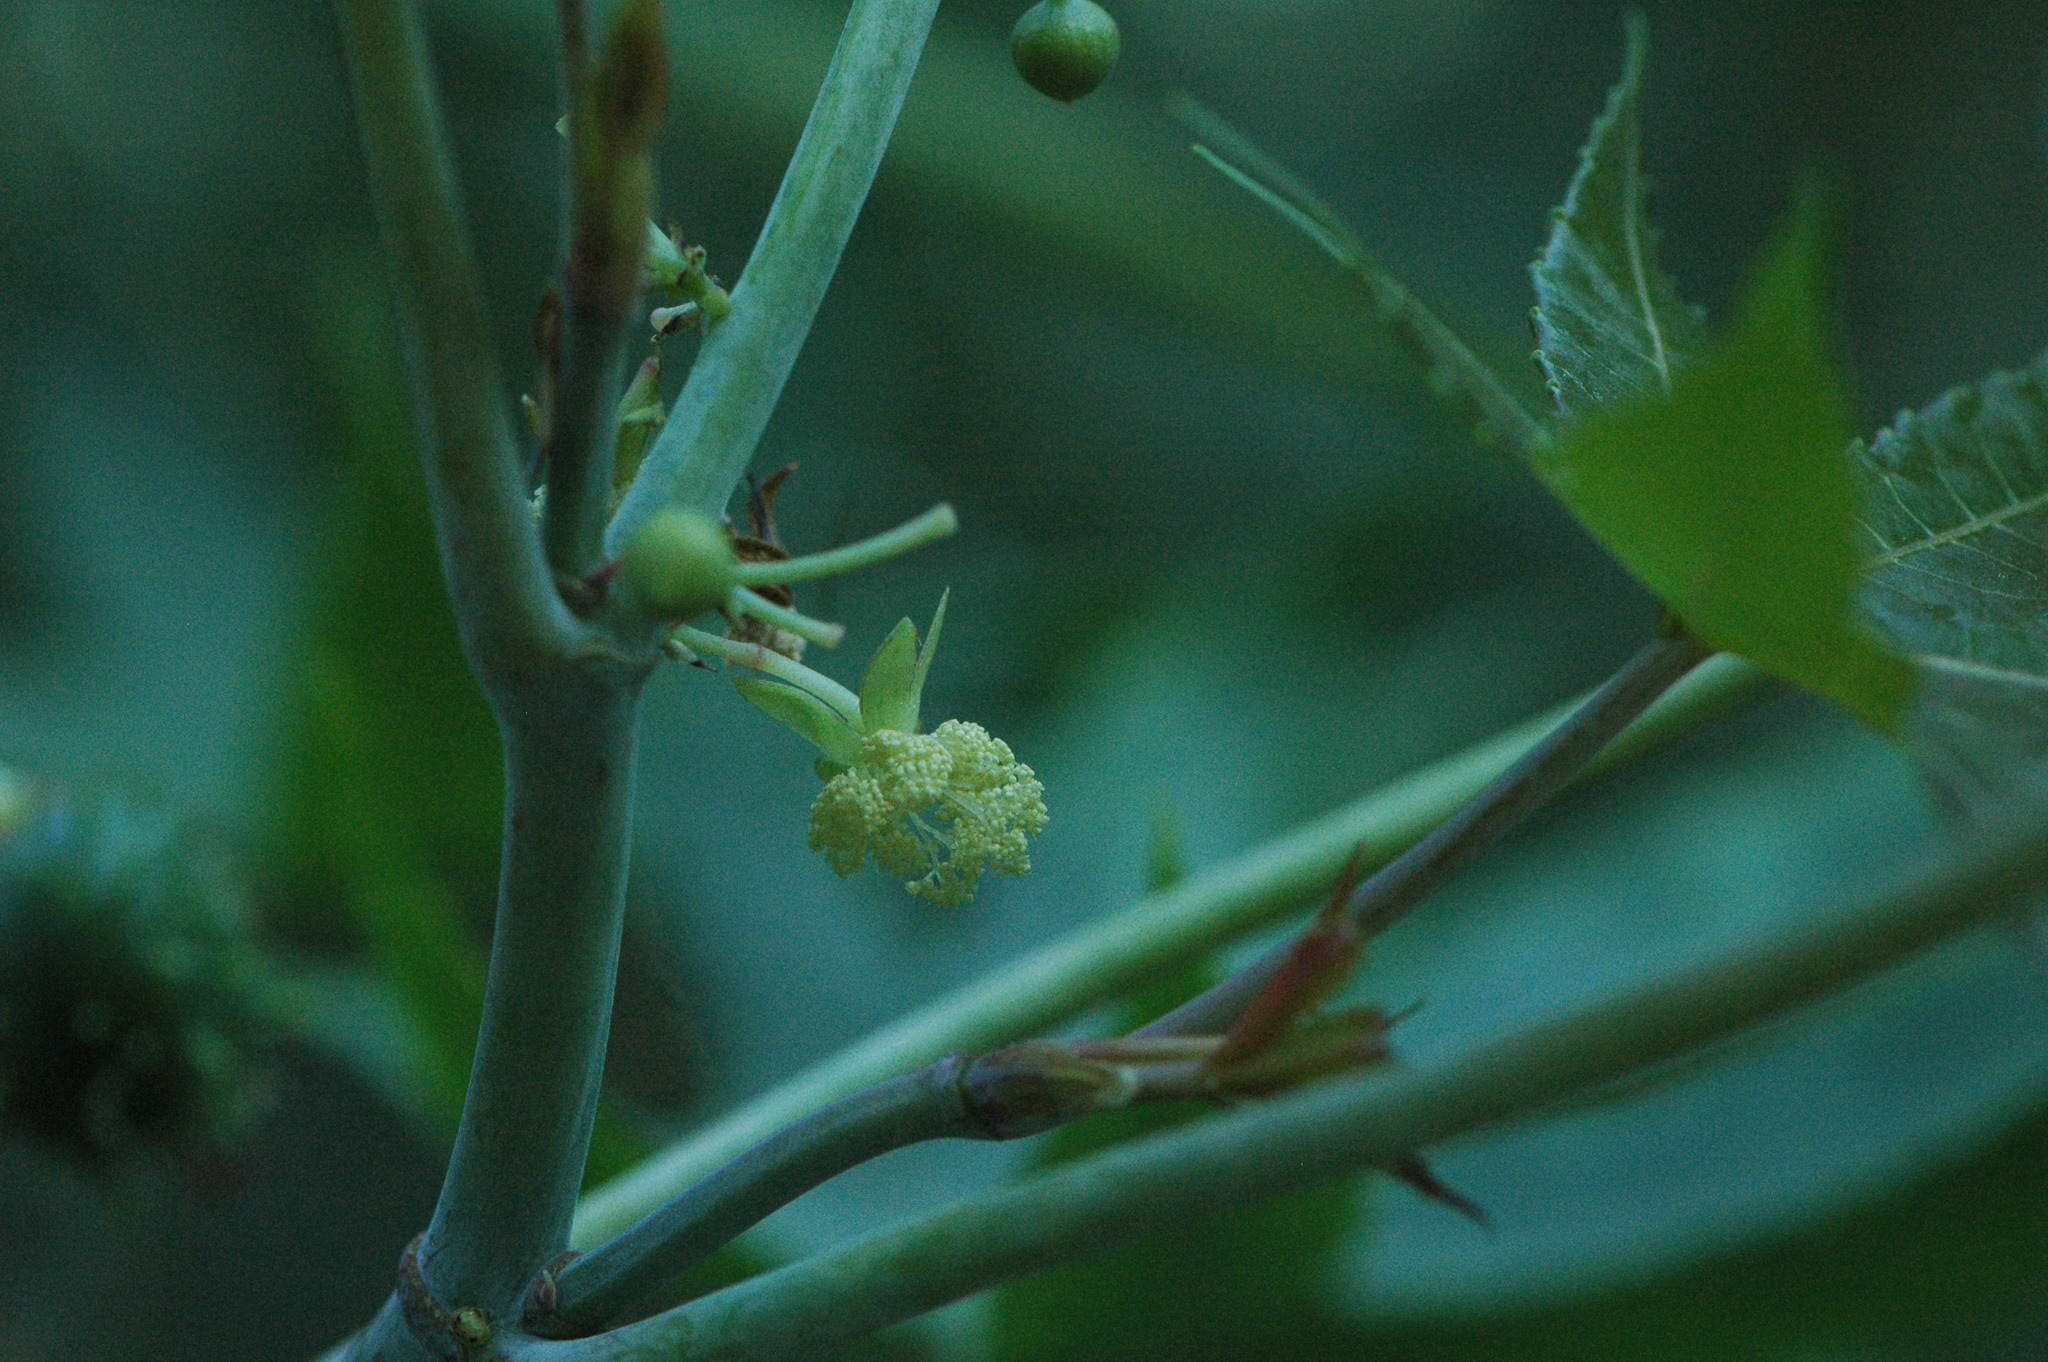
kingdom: Plantae
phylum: Tracheophyta
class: Magnoliopsida
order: Malpighiales
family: Euphorbiaceae
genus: Ricinus
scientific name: Ricinus communis
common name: Castor-oil-plant
